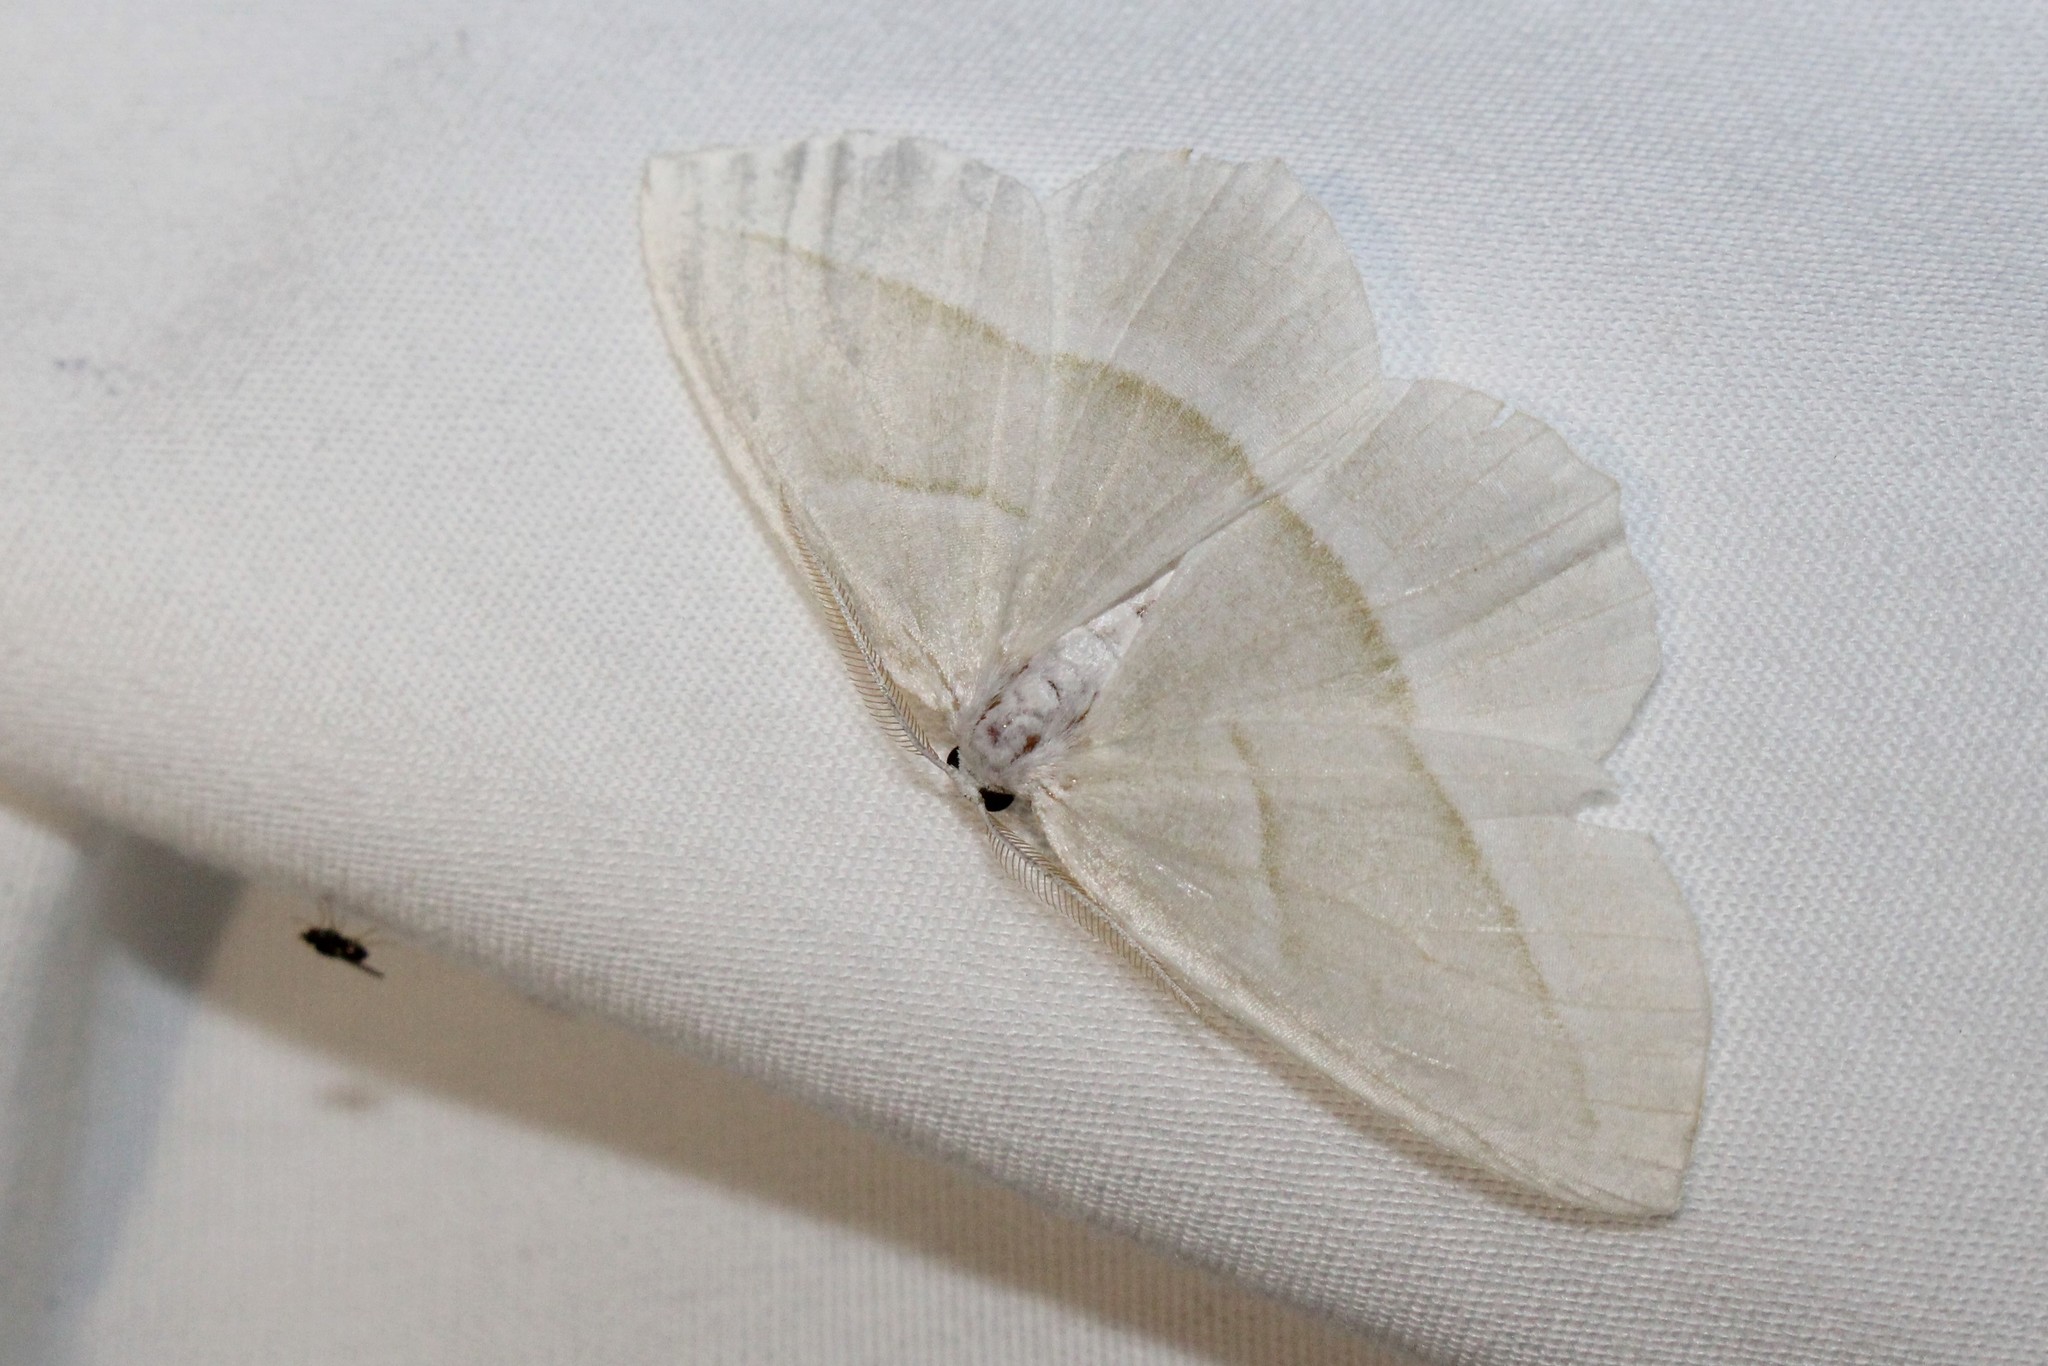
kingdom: Animalia
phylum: Arthropoda
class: Insecta
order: Lepidoptera
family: Geometridae
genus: Campaea
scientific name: Campaea perlata
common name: Fringed looper
